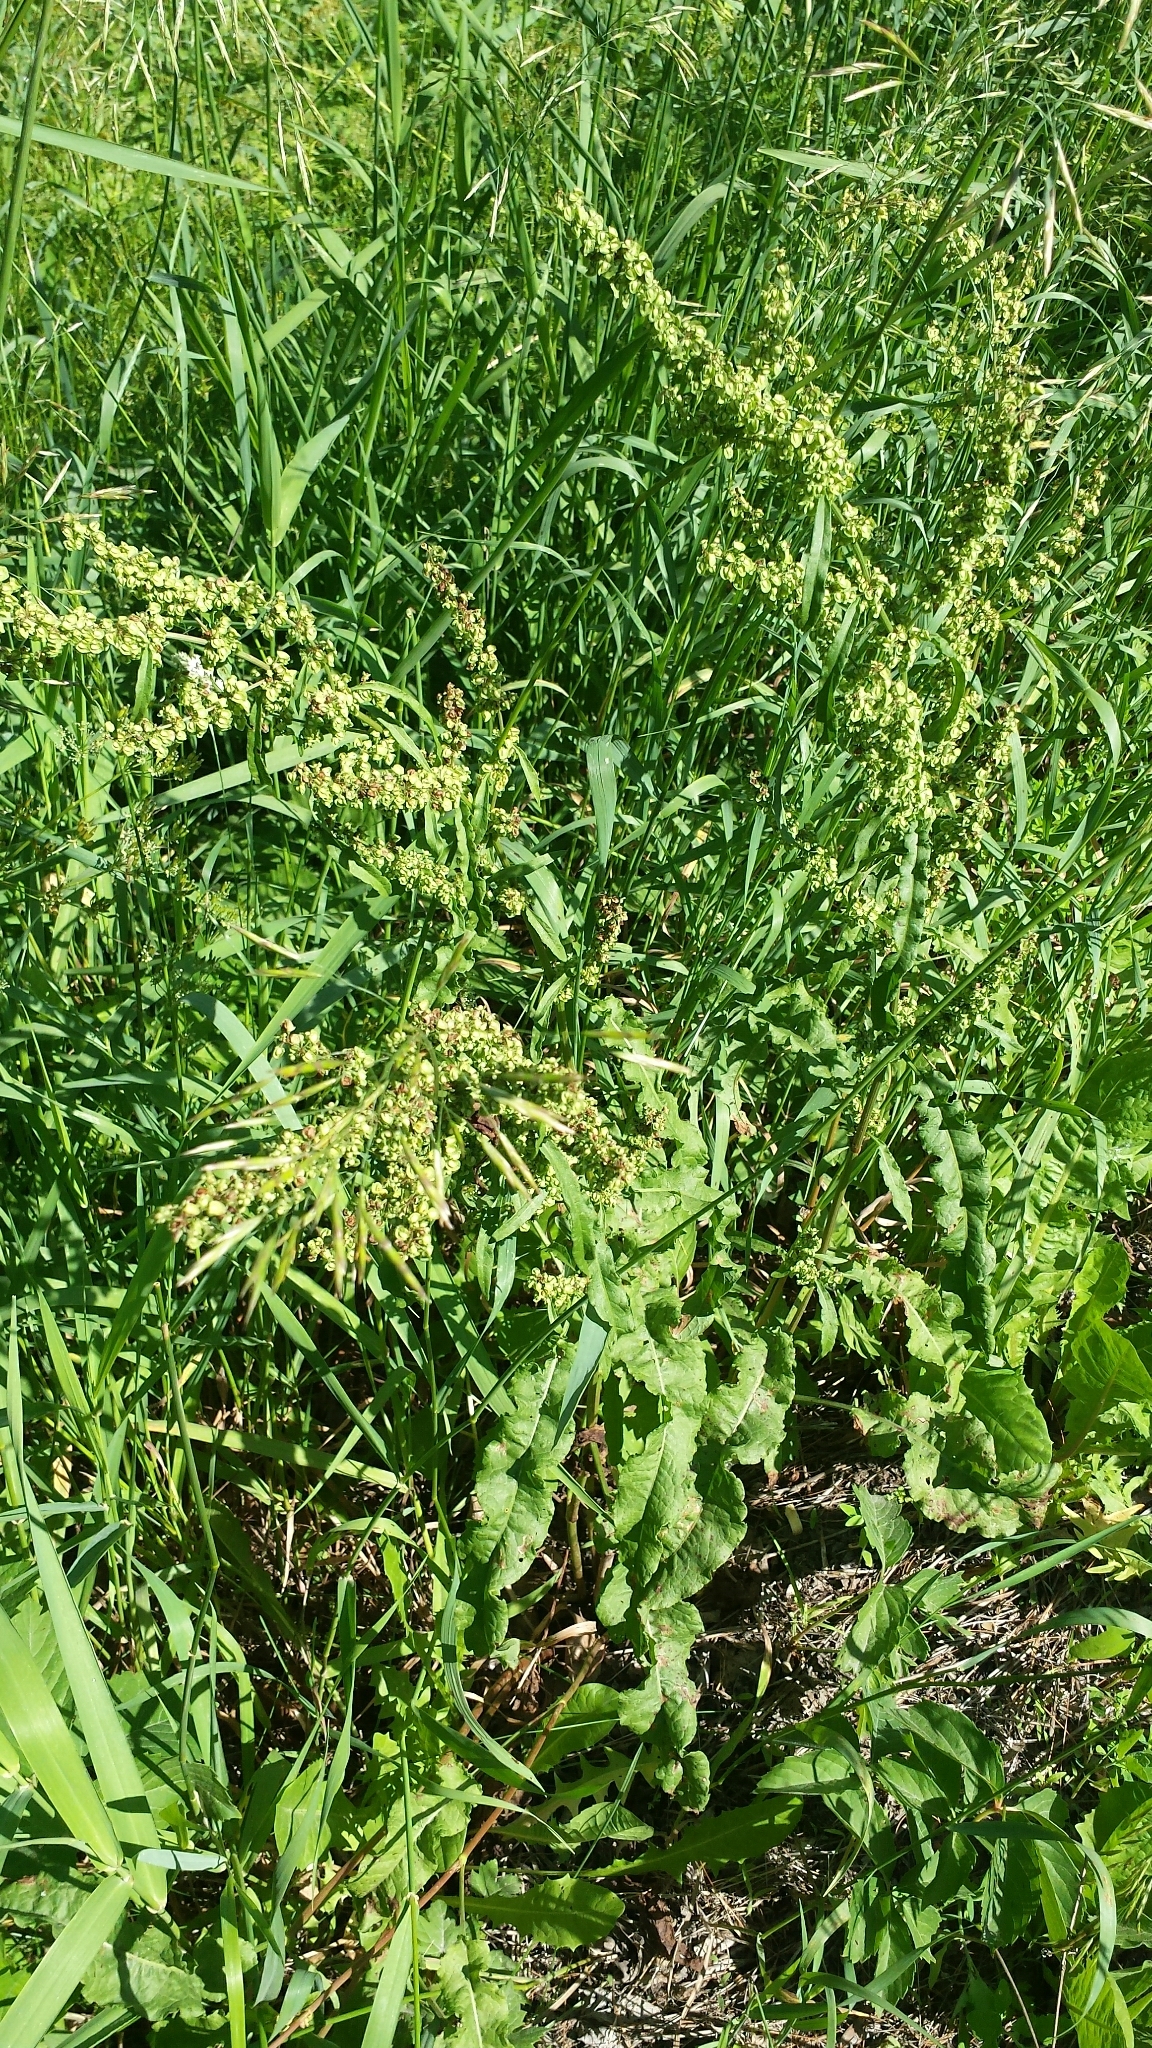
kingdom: Plantae
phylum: Tracheophyta
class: Magnoliopsida
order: Caryophyllales
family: Polygonaceae
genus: Rumex
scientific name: Rumex crispus
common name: Curled dock
